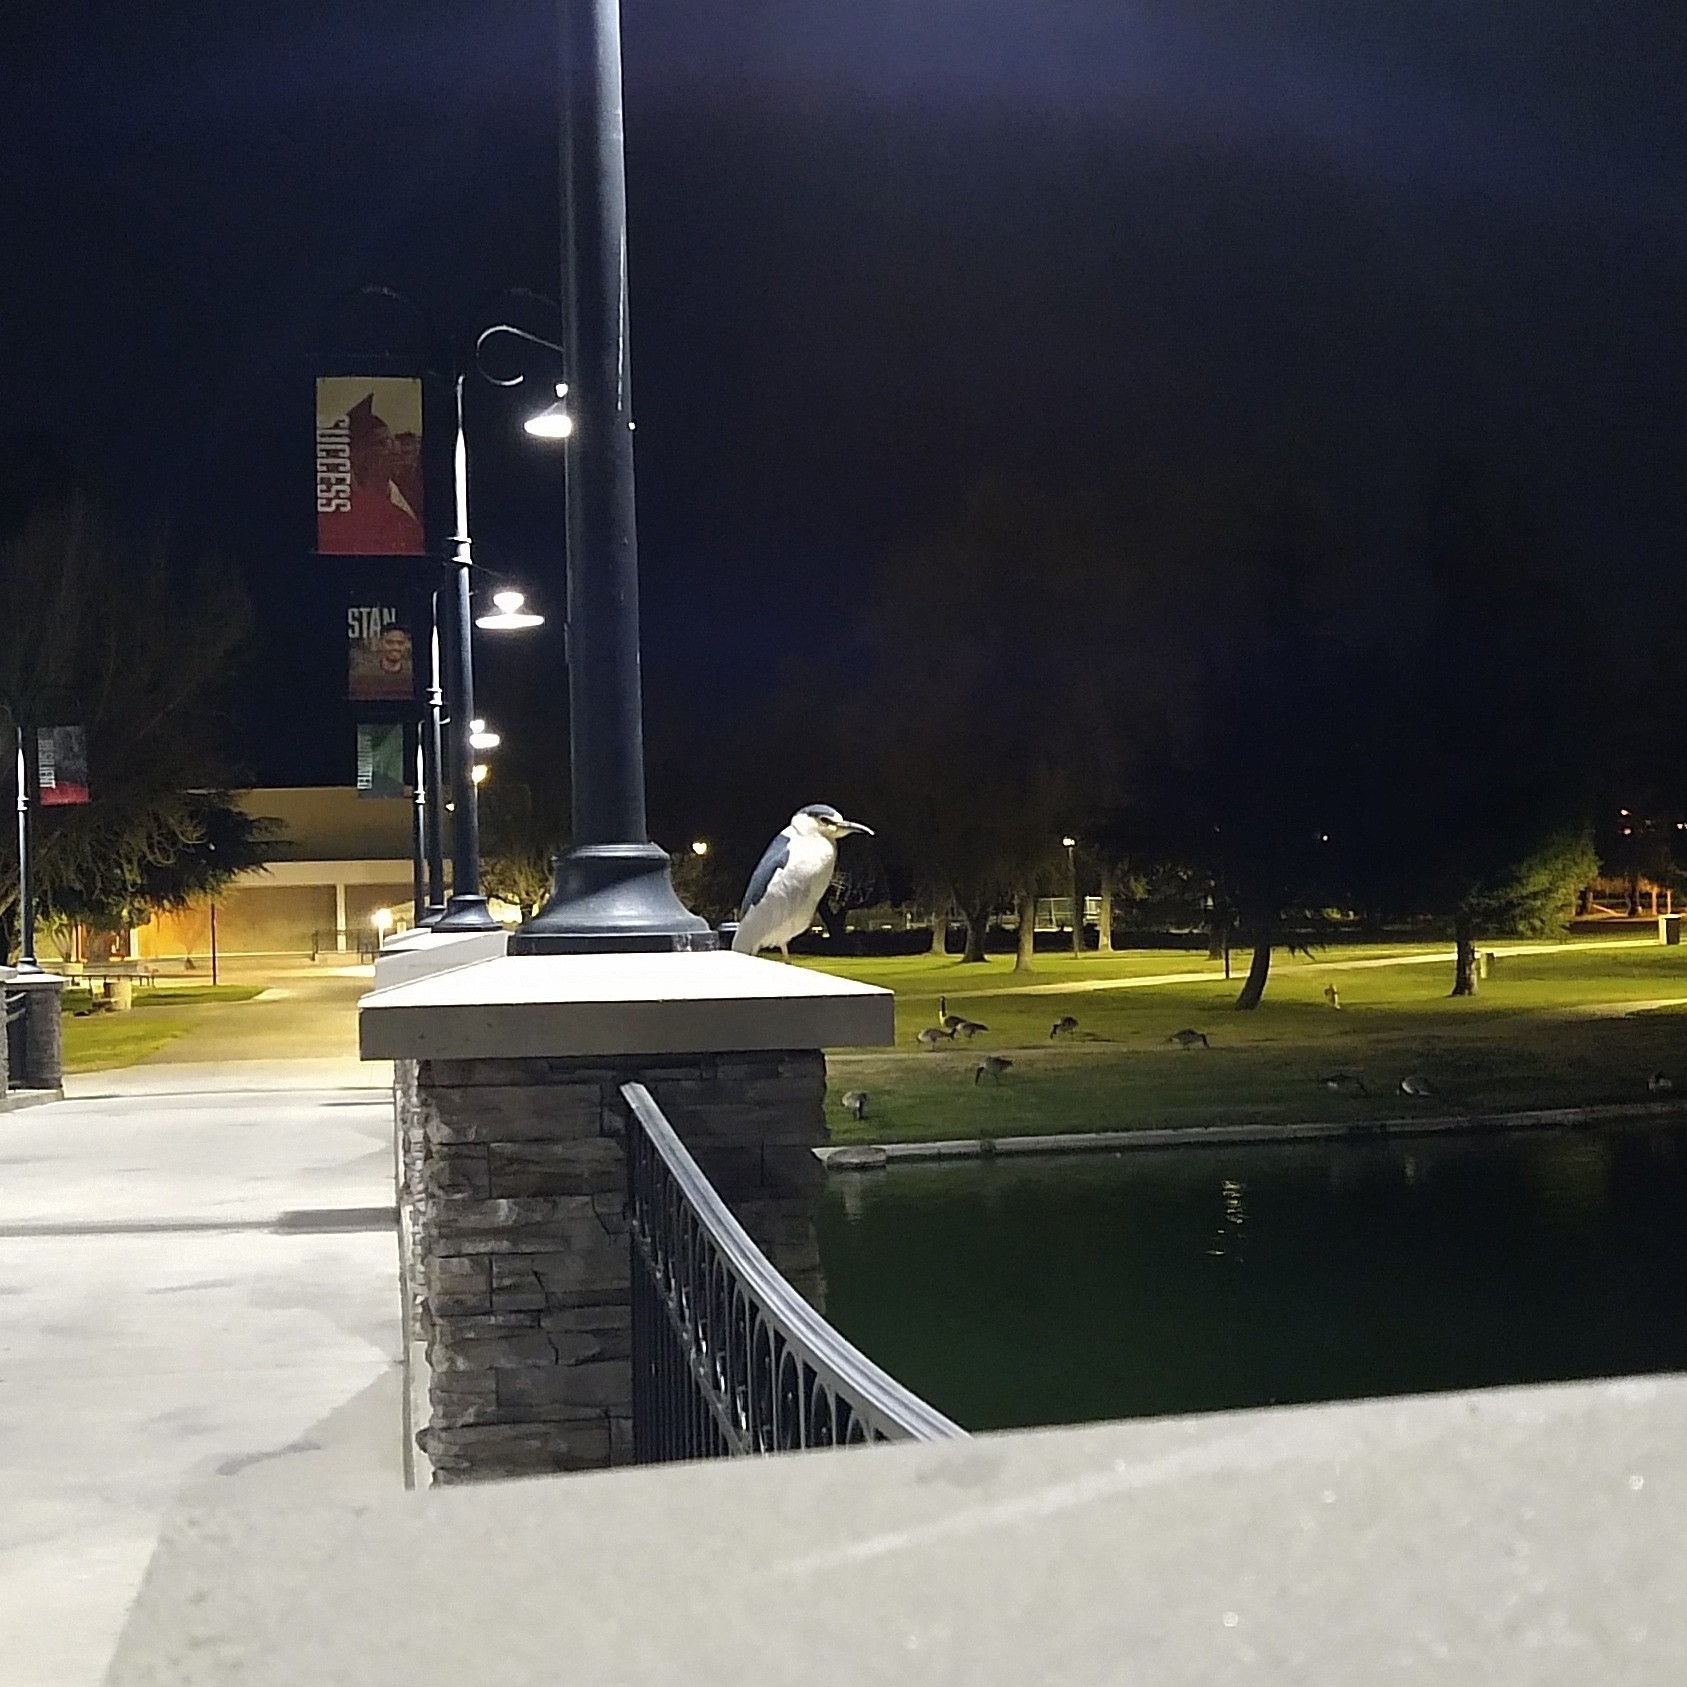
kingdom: Animalia
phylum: Chordata
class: Aves
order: Pelecaniformes
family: Ardeidae
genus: Nycticorax
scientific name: Nycticorax nycticorax
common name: Black-crowned night heron
